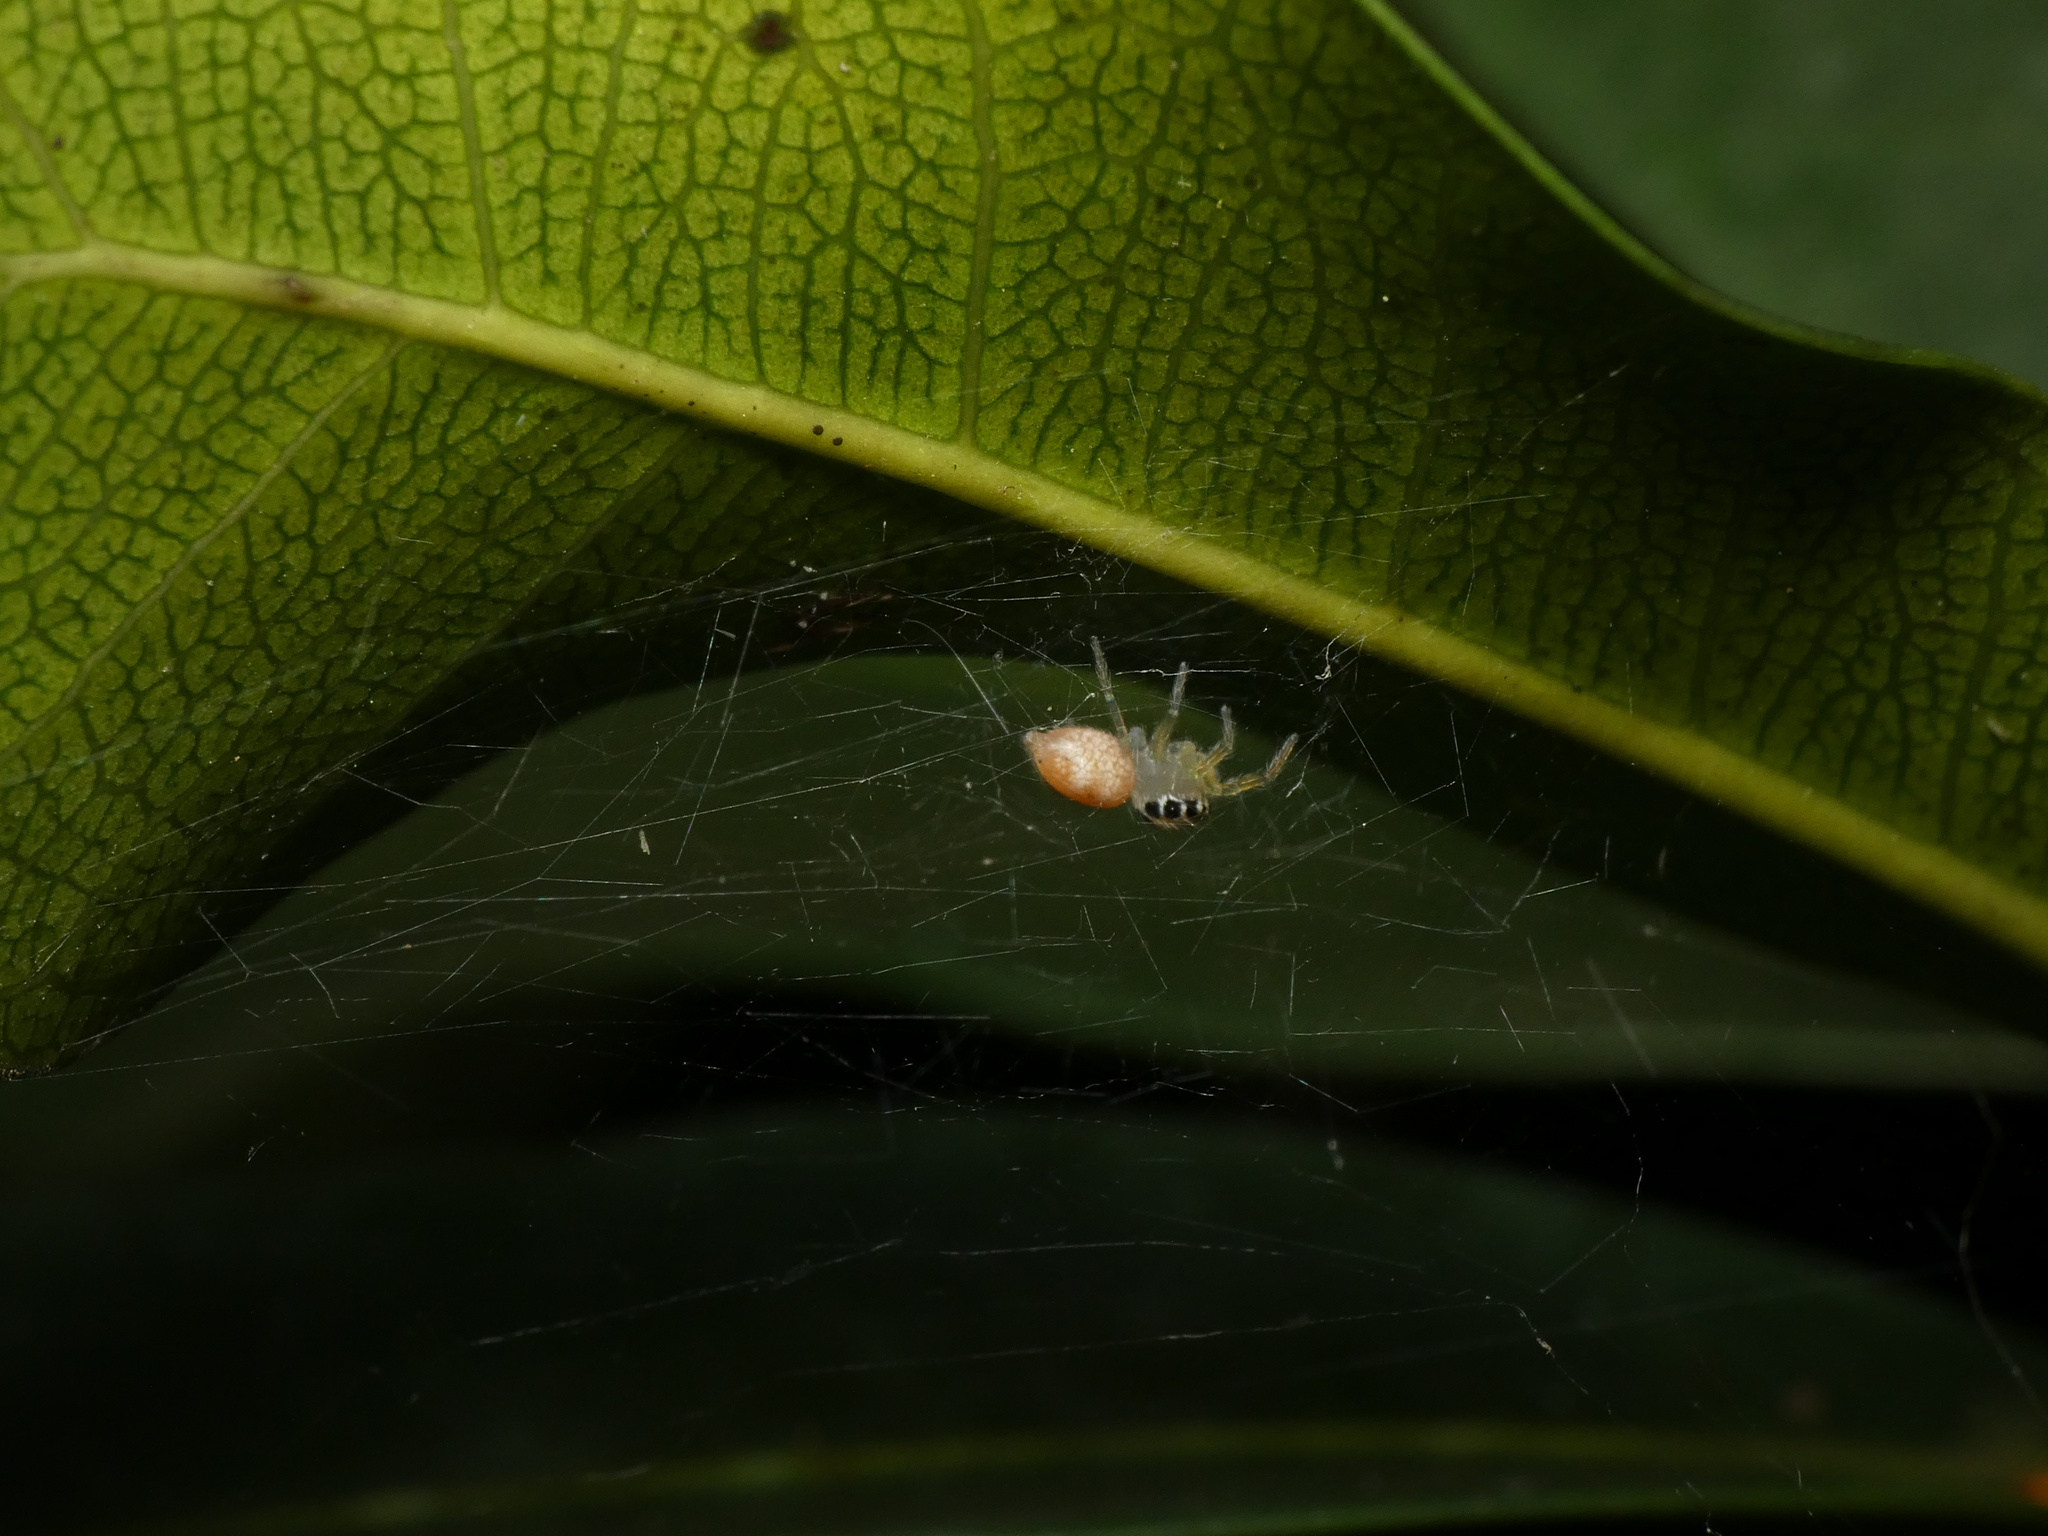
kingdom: Animalia
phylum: Arthropoda
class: Arachnida
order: Araneae
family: Salticidae
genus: Brancus
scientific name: Brancus mustelus
